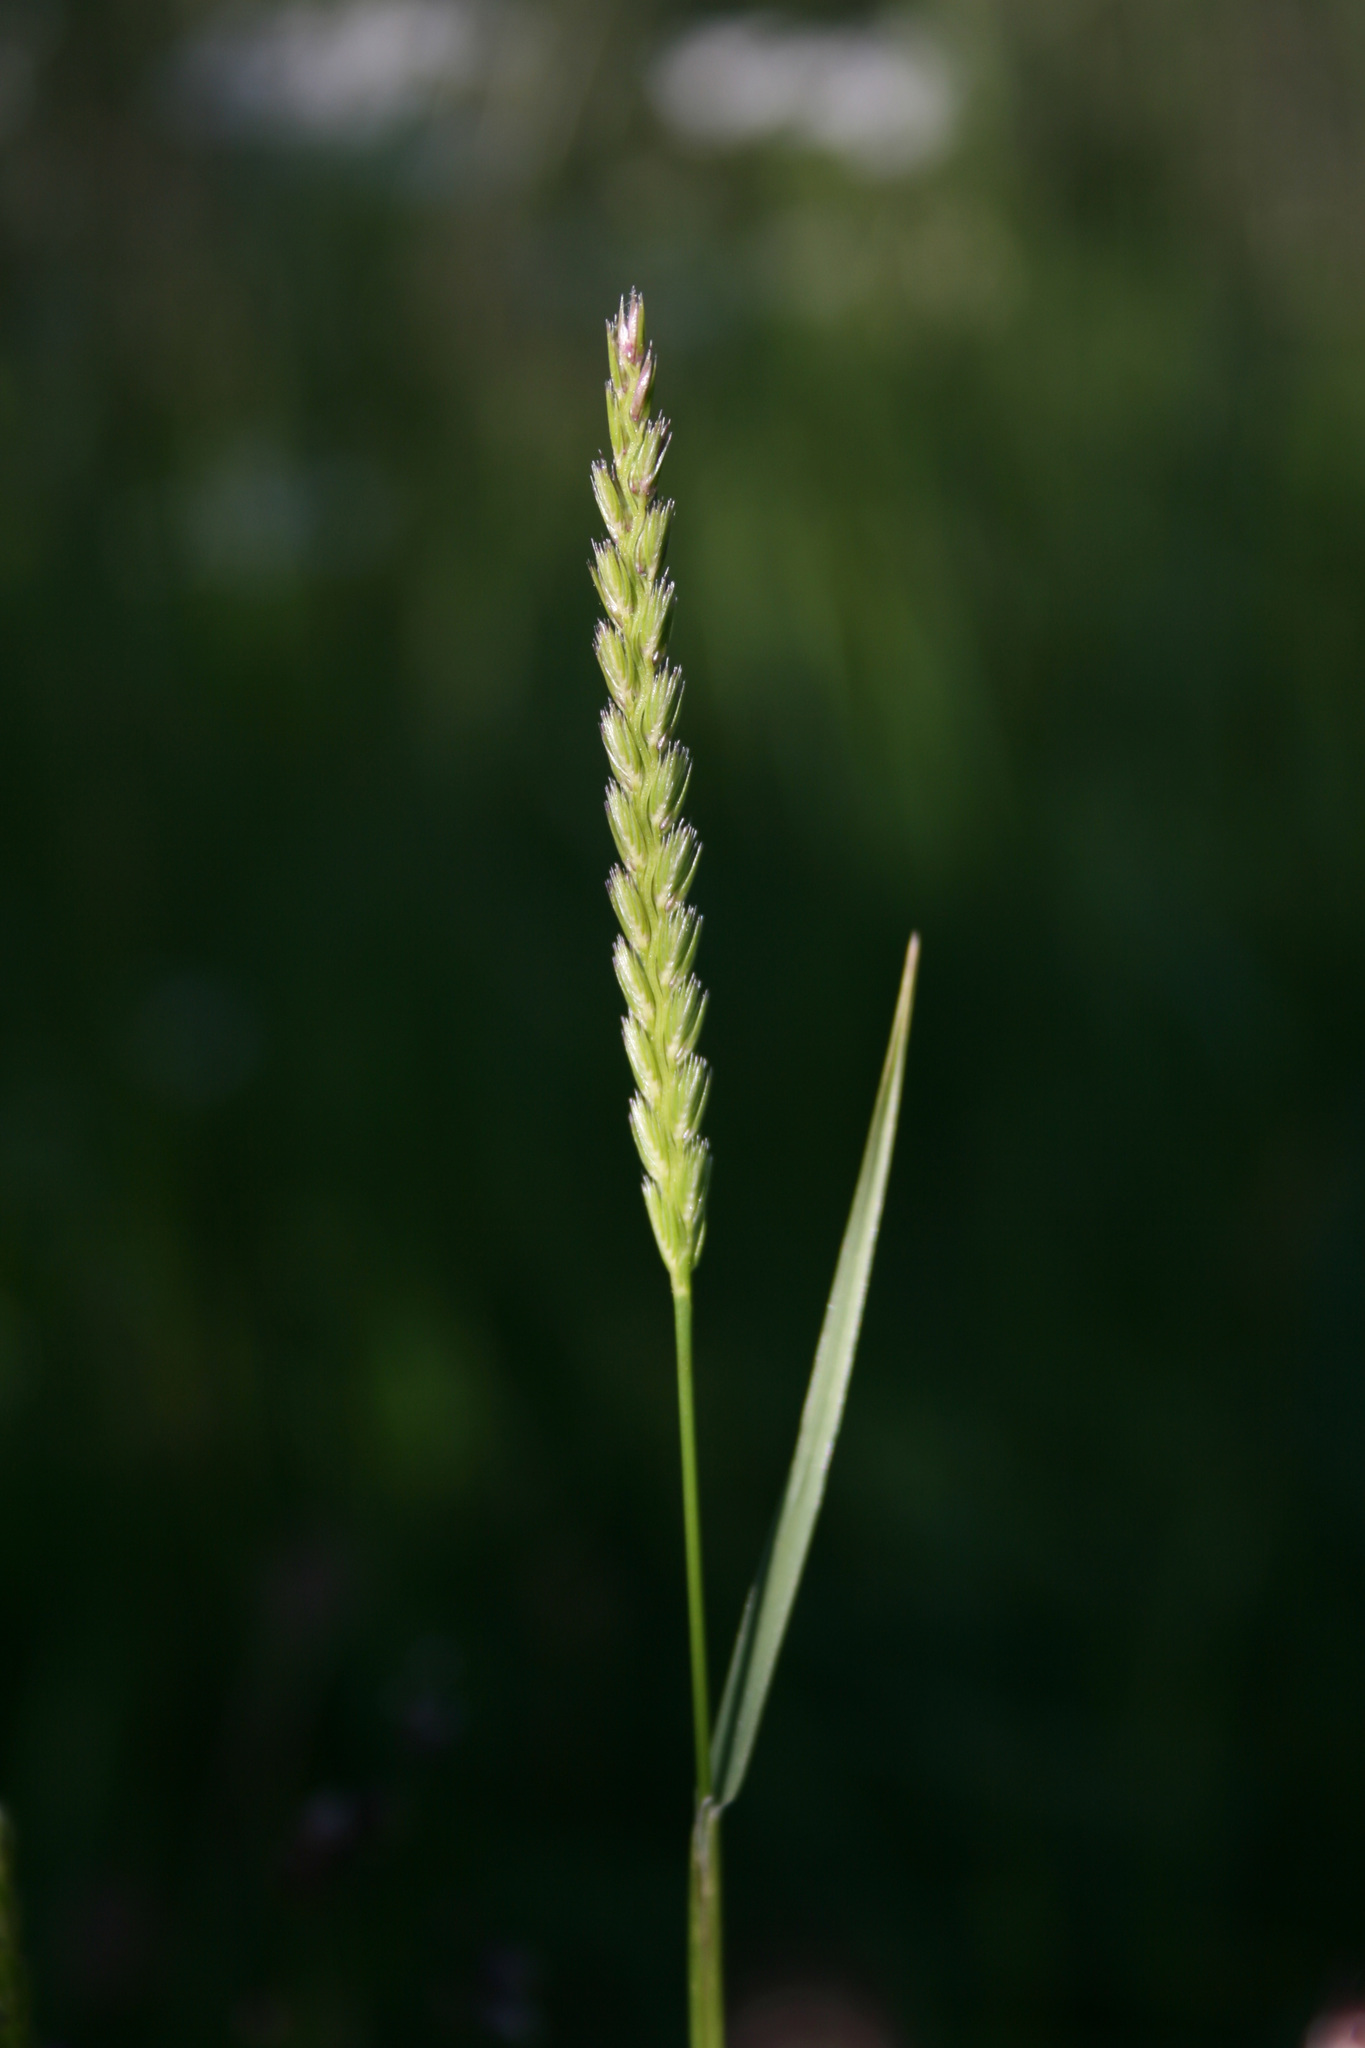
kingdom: Plantae
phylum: Tracheophyta
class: Liliopsida
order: Poales
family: Poaceae
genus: Cynosurus
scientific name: Cynosurus cristatus
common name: Crested dog's-tail
